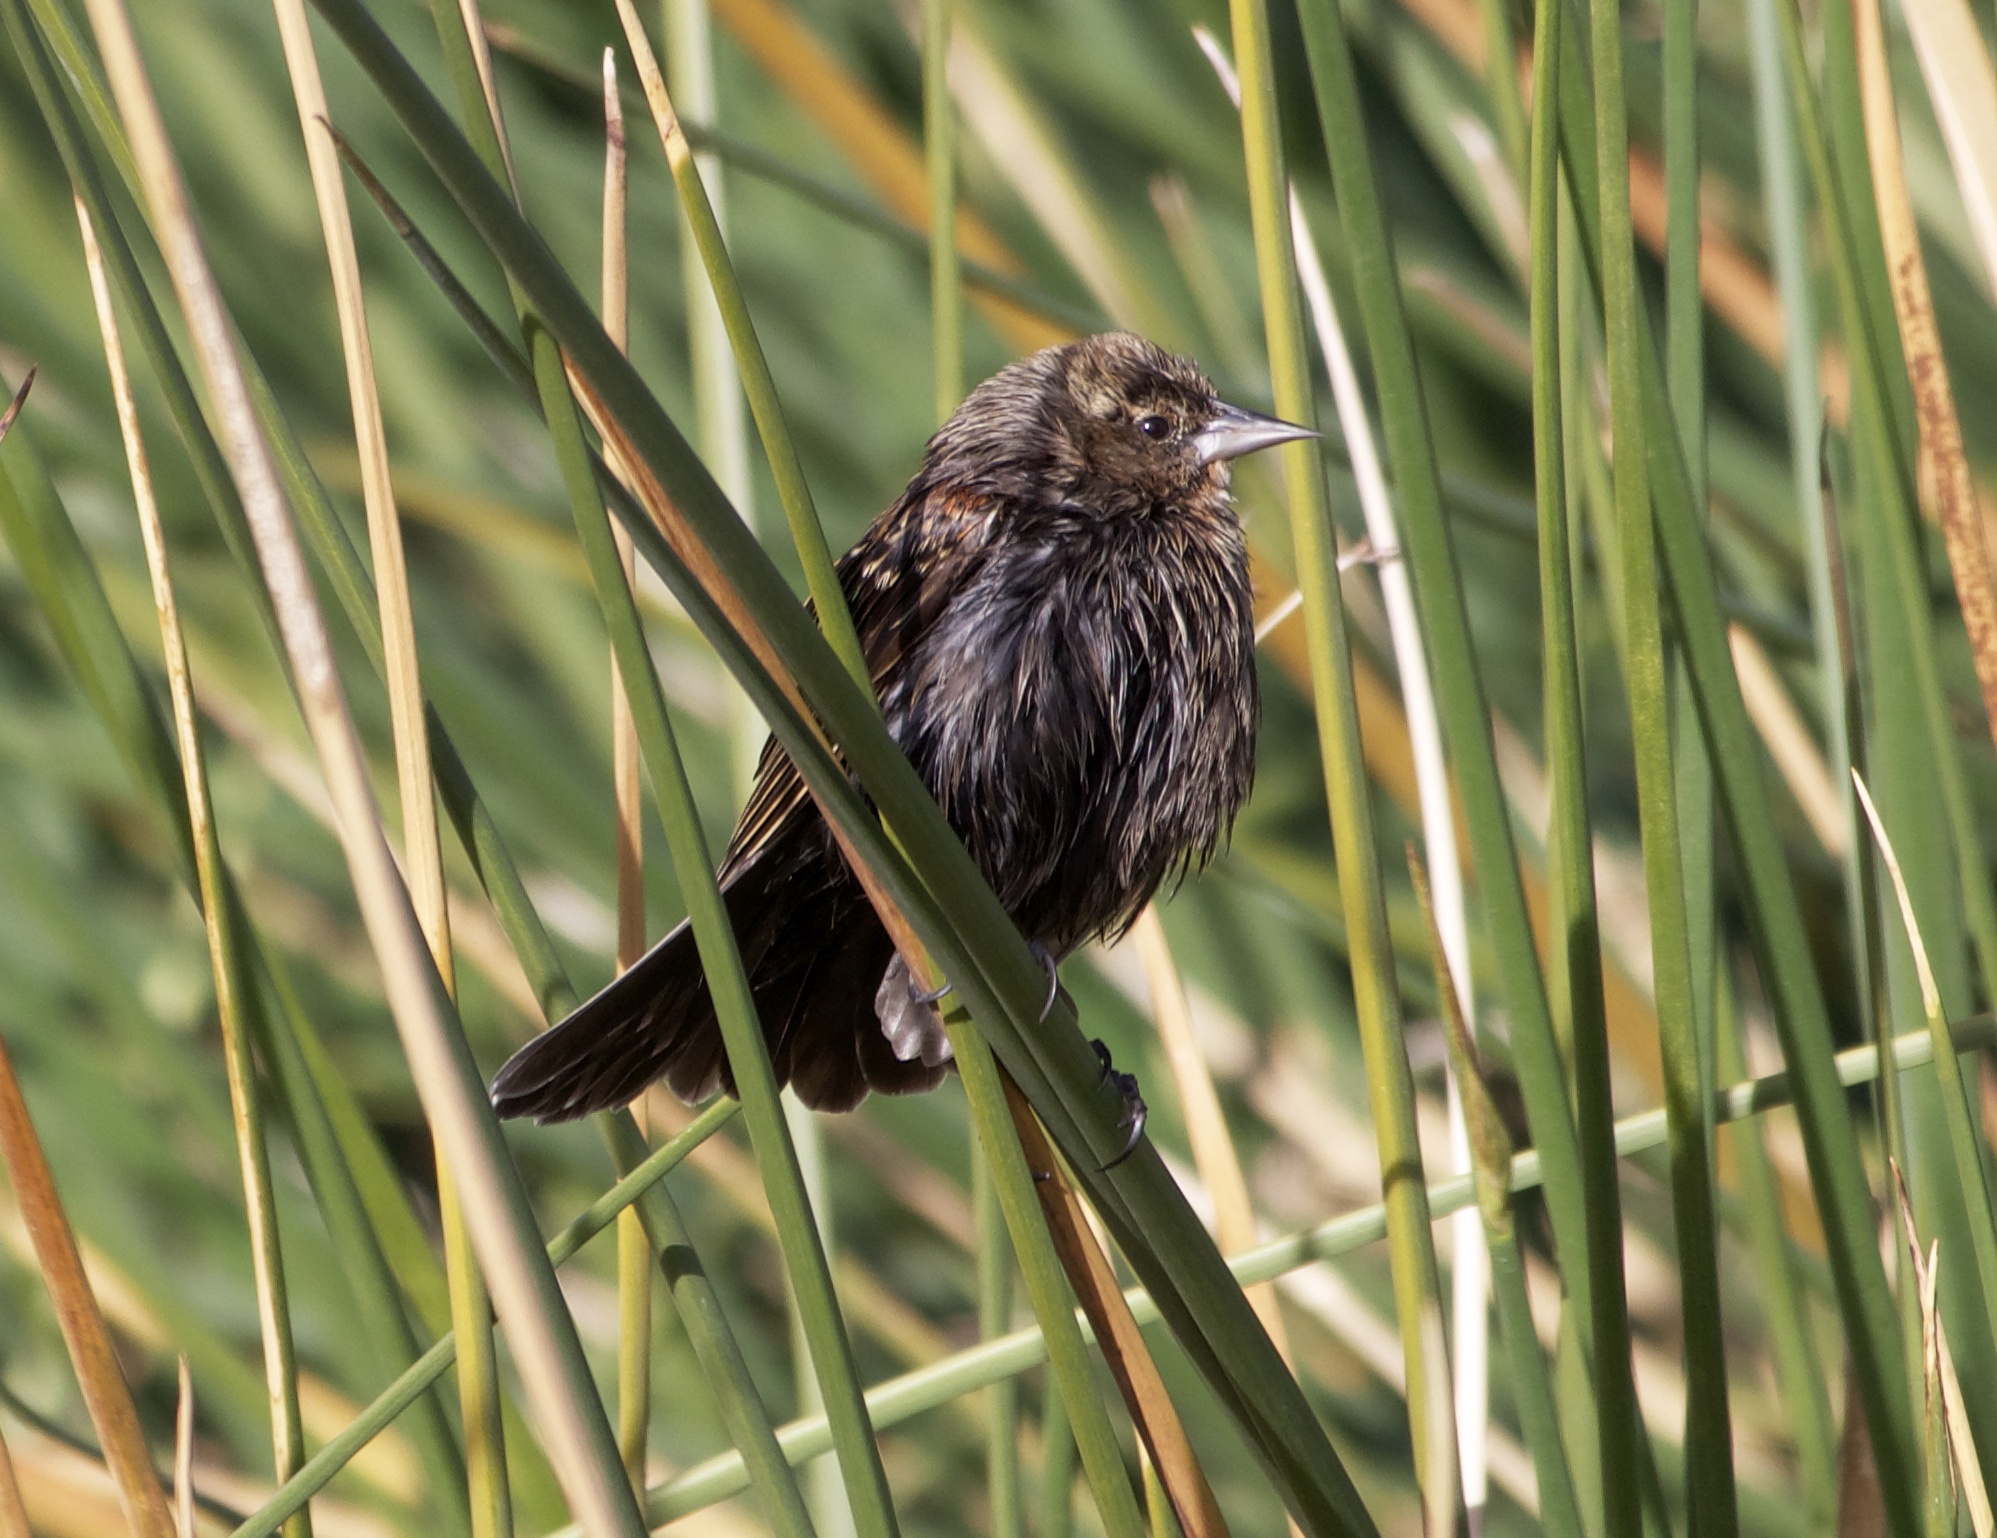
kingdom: Animalia
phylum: Chordata
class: Aves
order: Passeriformes
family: Icteridae
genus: Agelaius
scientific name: Agelaius phoeniceus
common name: Red-winged blackbird
